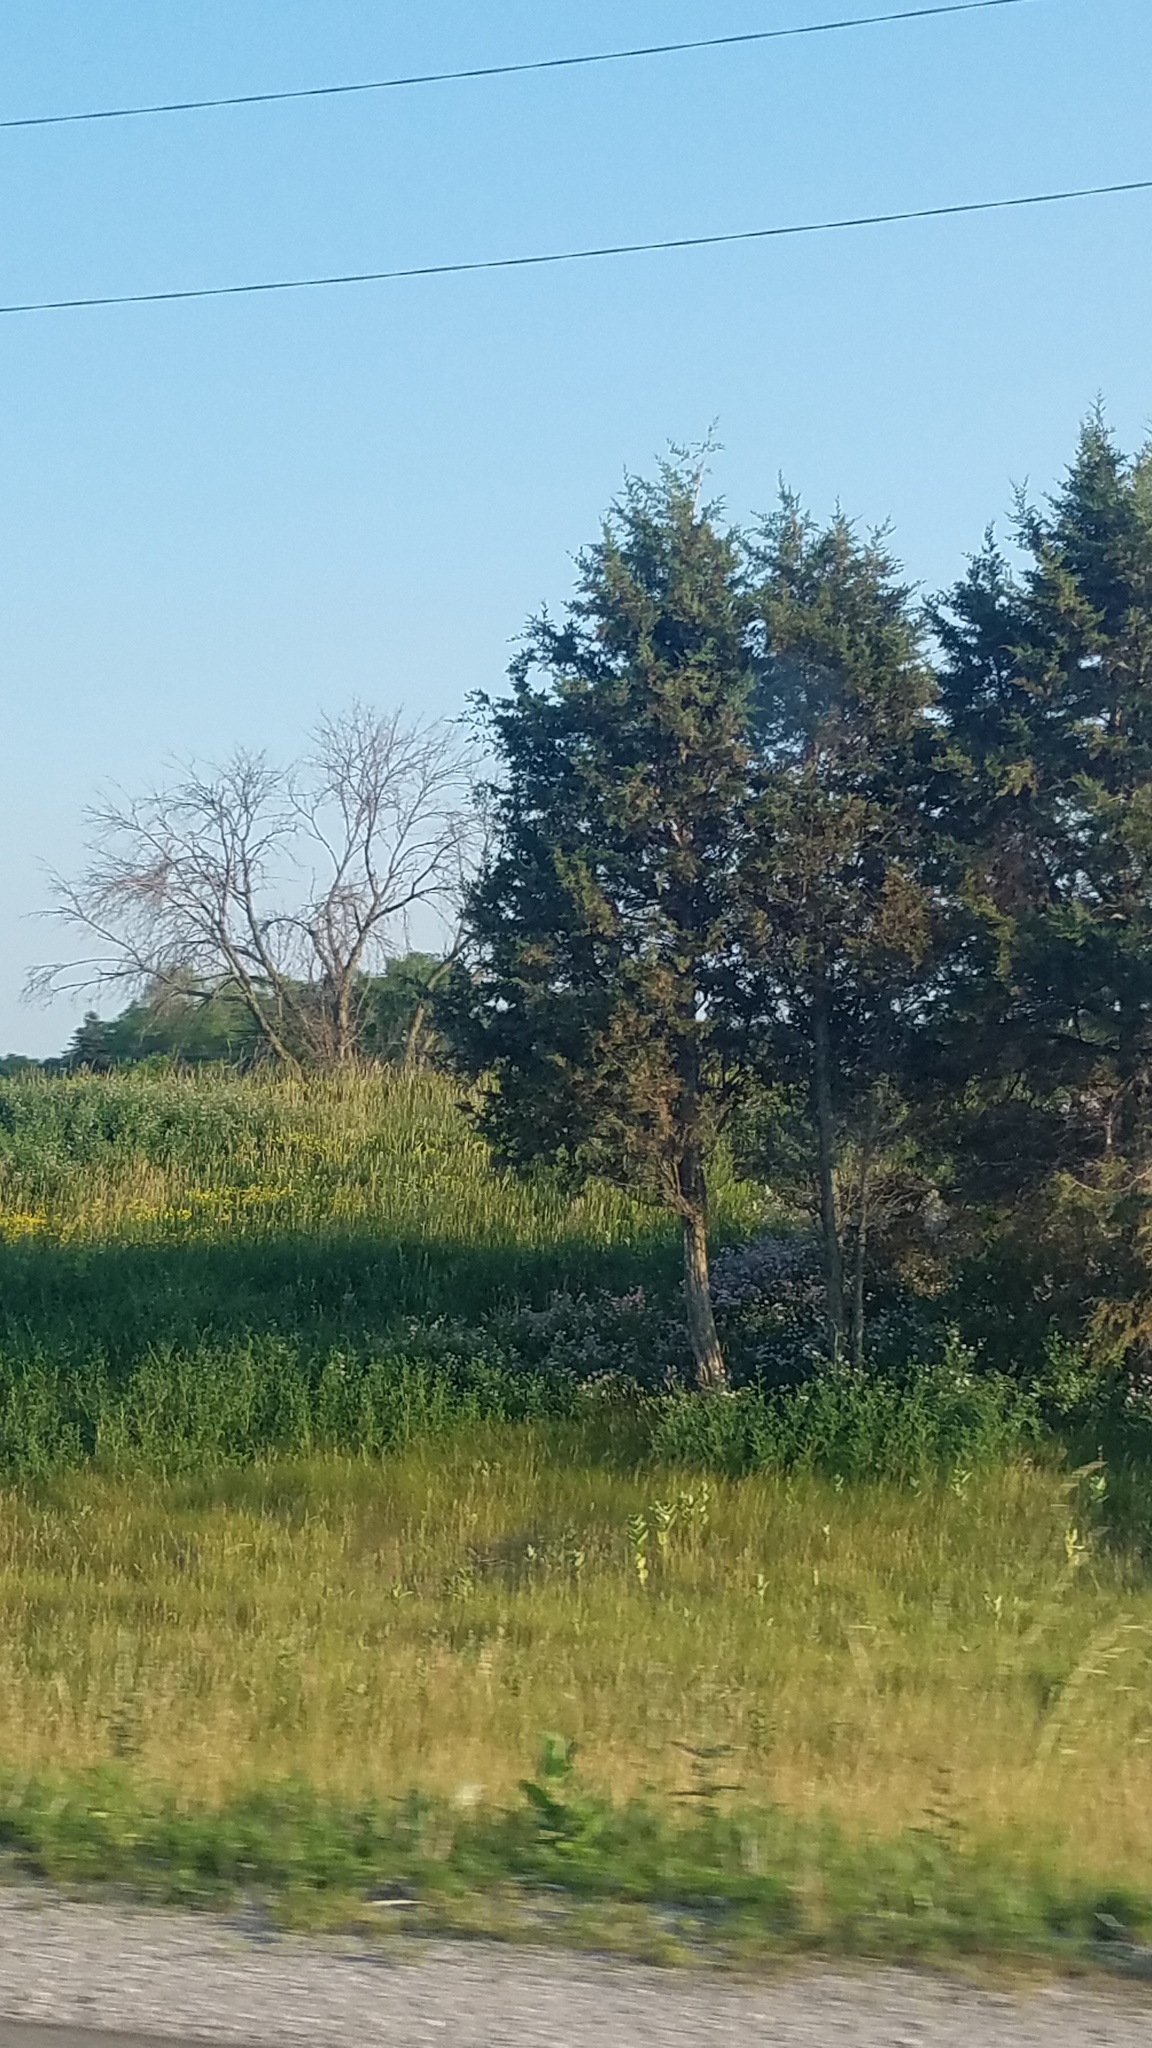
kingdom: Plantae
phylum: Tracheophyta
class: Pinopsida
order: Pinales
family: Cupressaceae
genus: Juniperus
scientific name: Juniperus virginiana
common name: Red juniper
